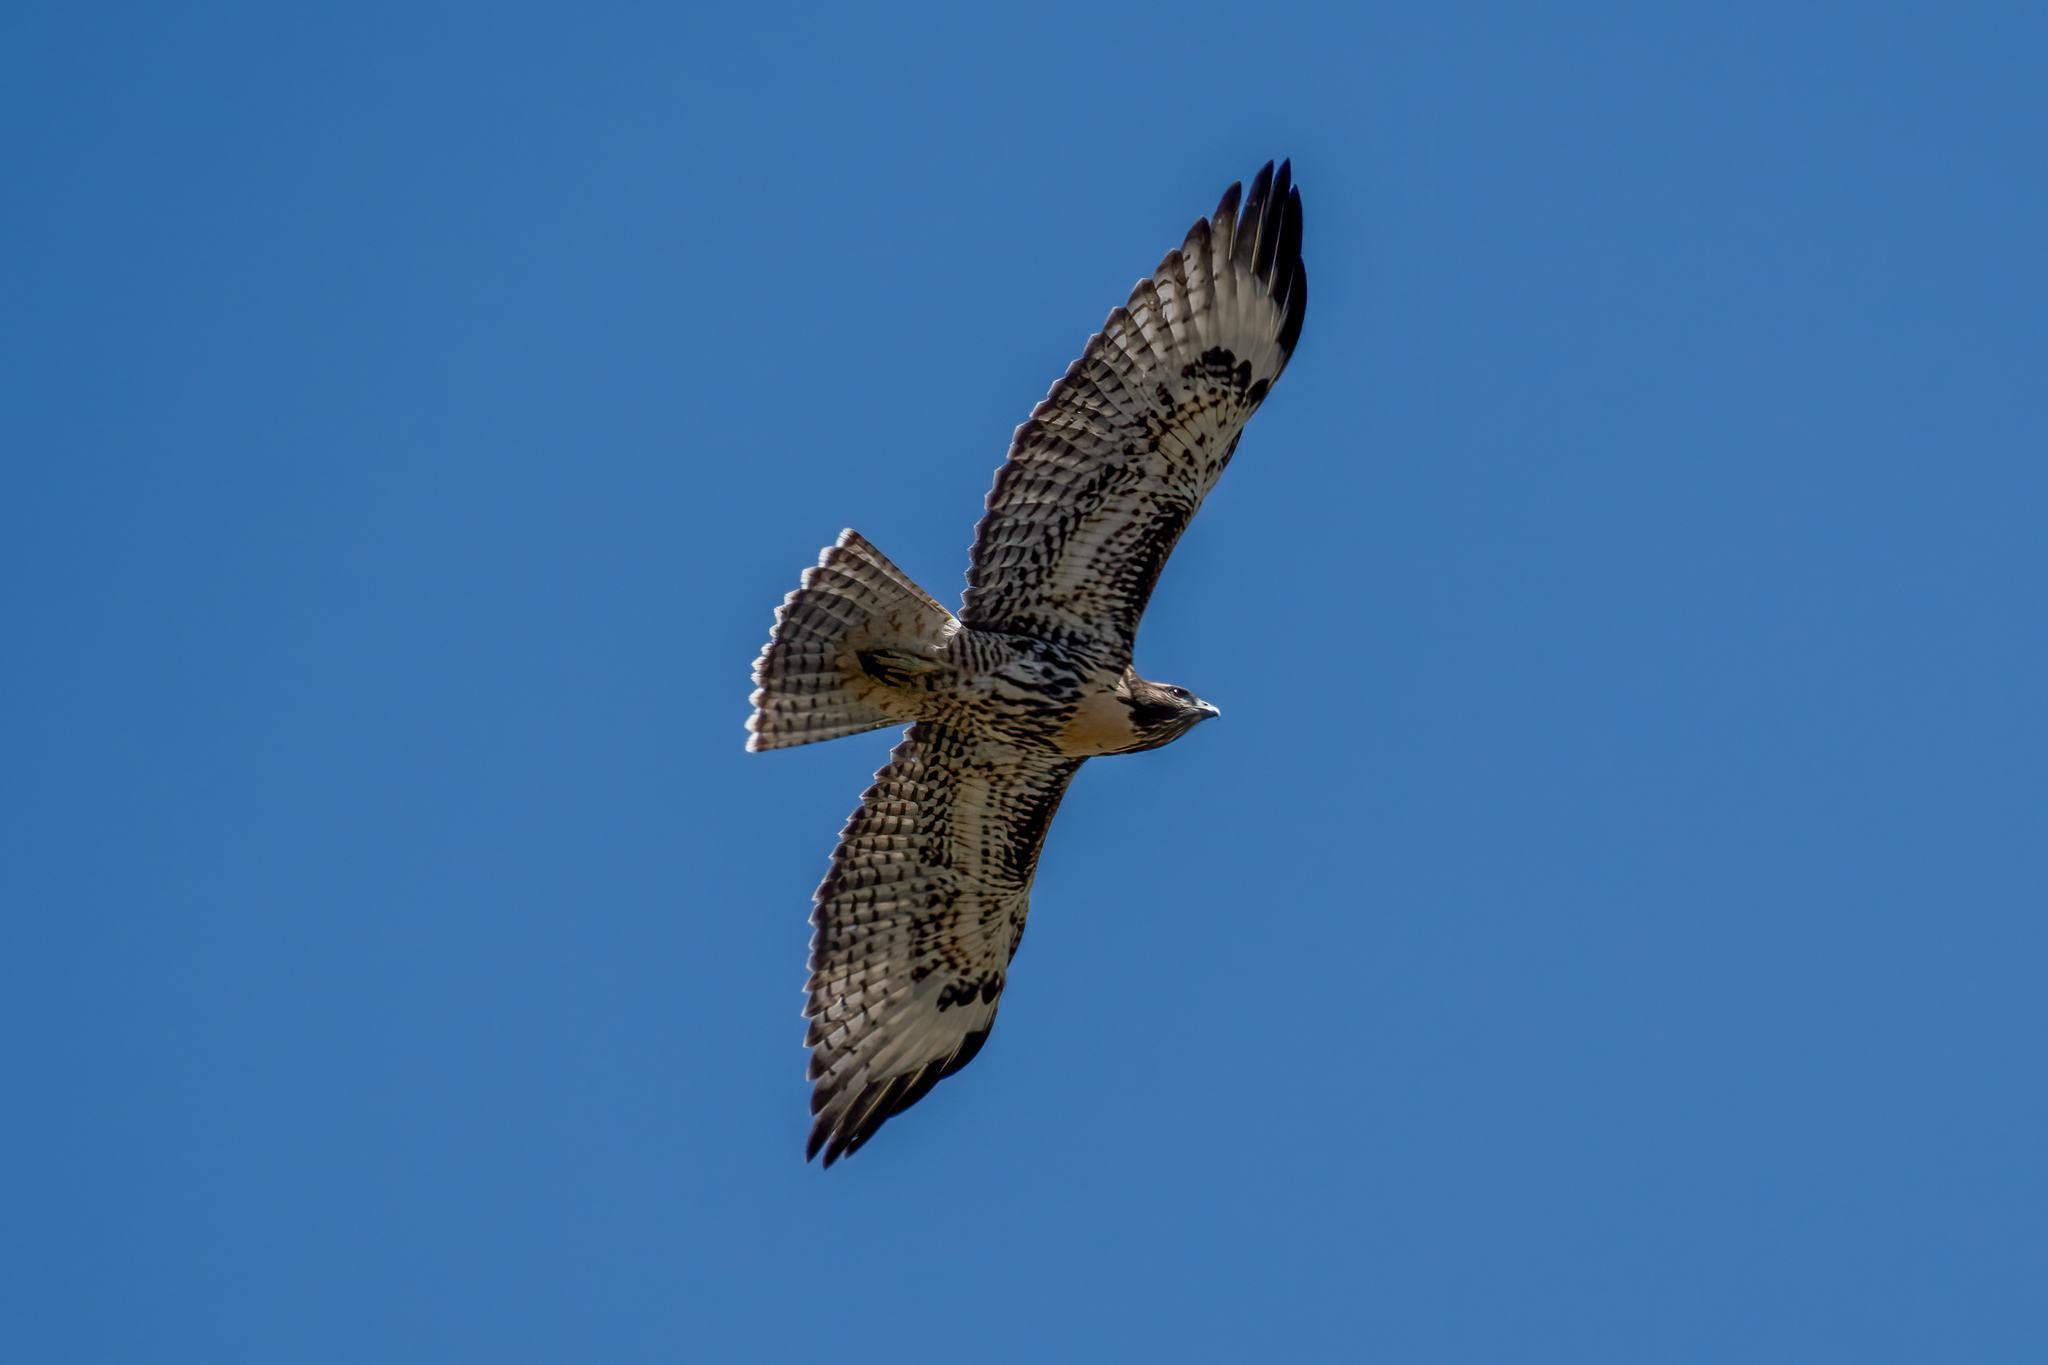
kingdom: Animalia
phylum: Chordata
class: Aves
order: Accipitriformes
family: Accipitridae
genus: Buteo
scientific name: Buteo jamaicensis
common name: Red-tailed hawk
